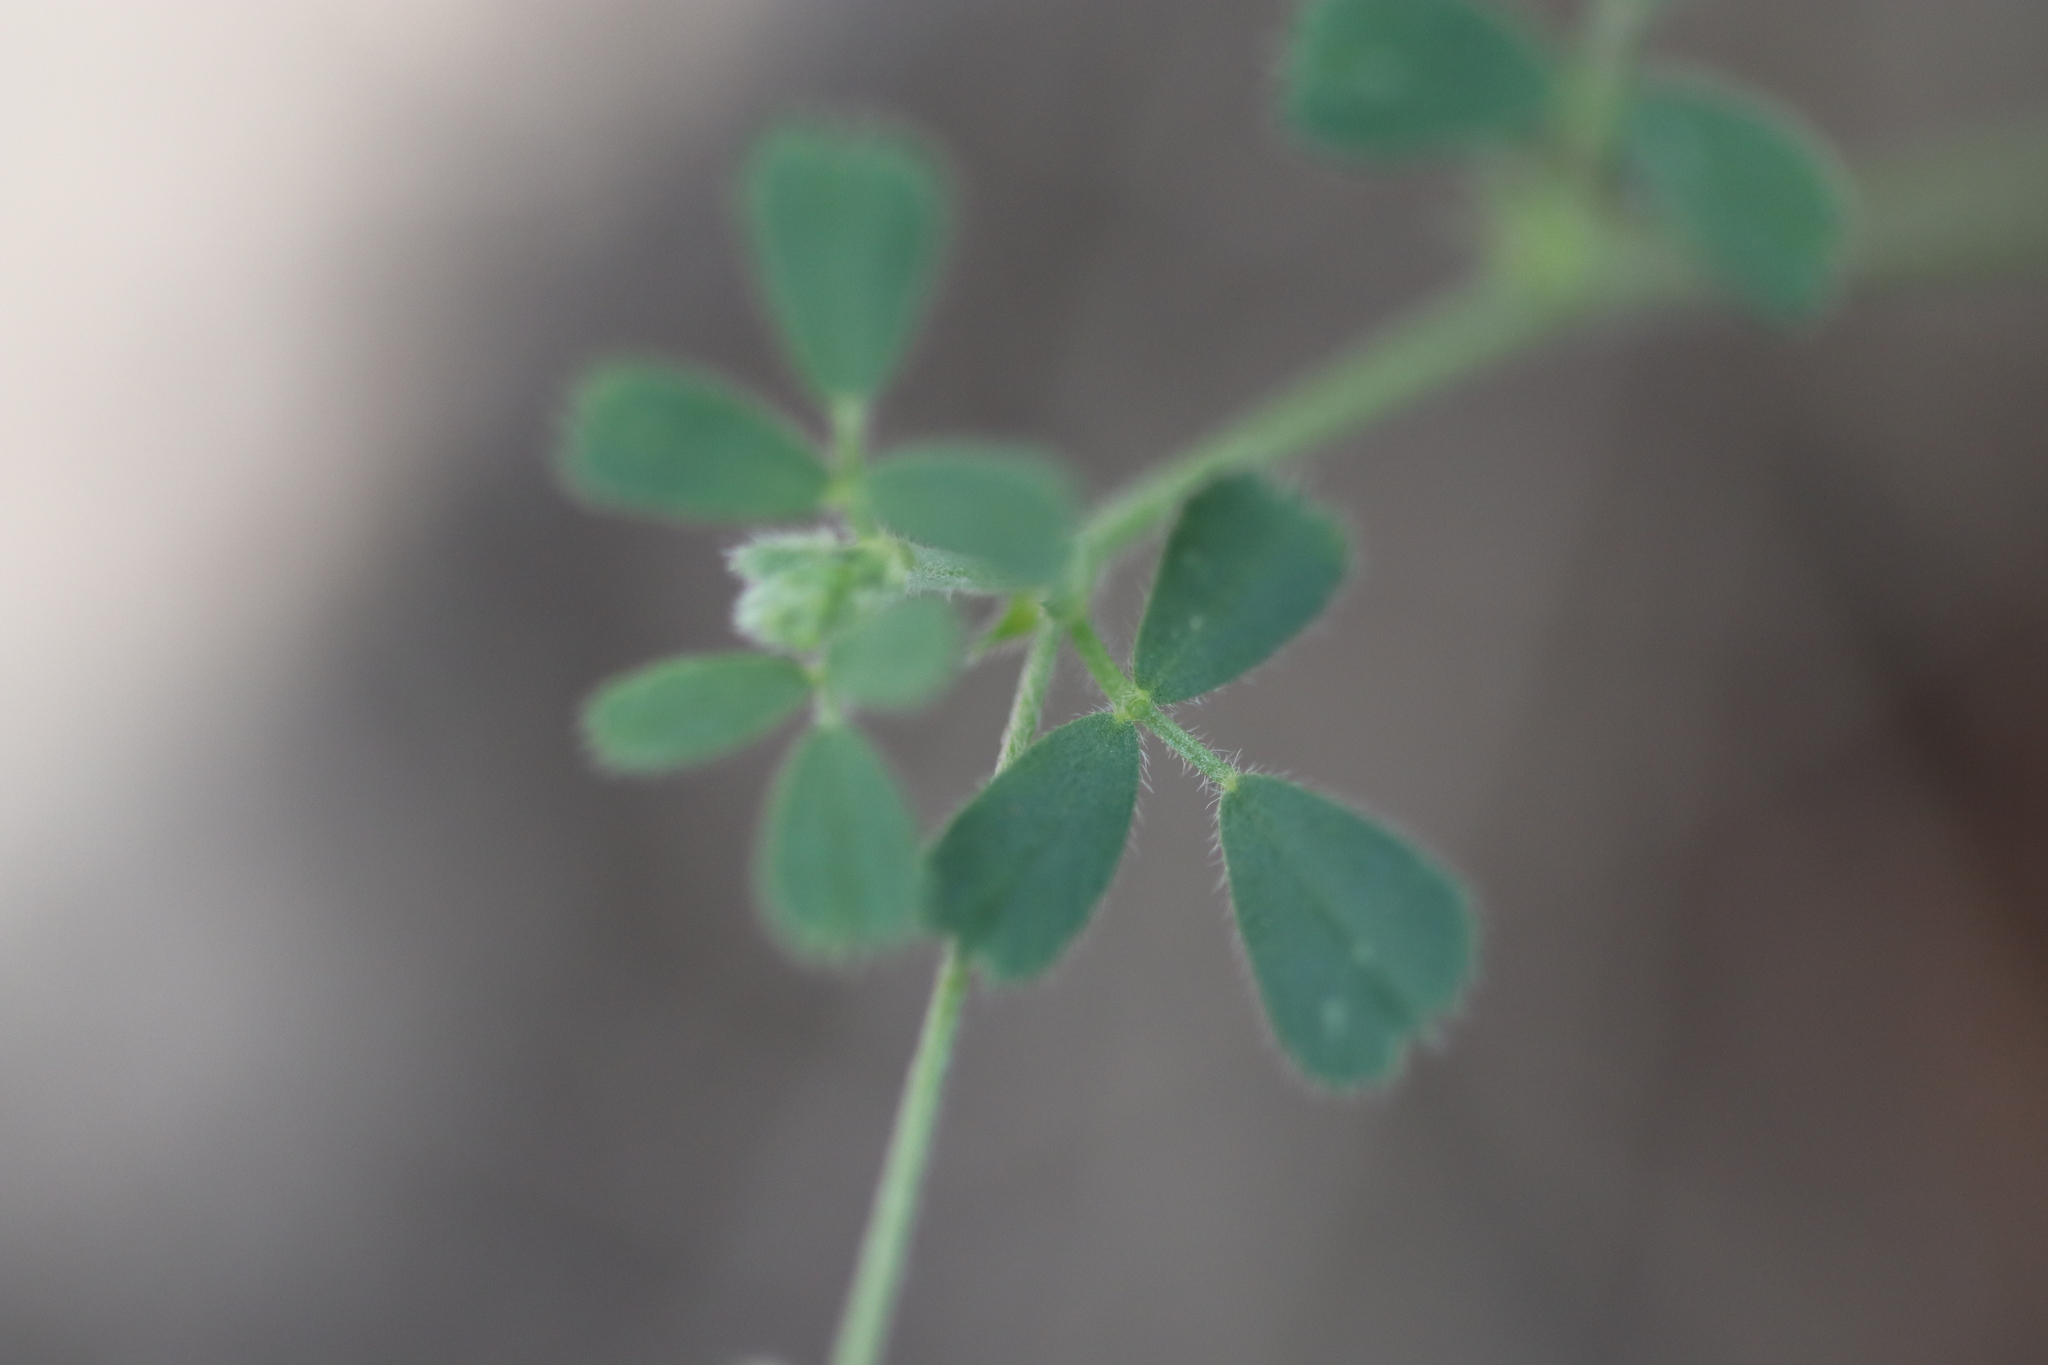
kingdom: Plantae
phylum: Tracheophyta
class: Magnoliopsida
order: Fabales
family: Fabaceae
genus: Trifolium
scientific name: Trifolium campestre
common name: Field clover
